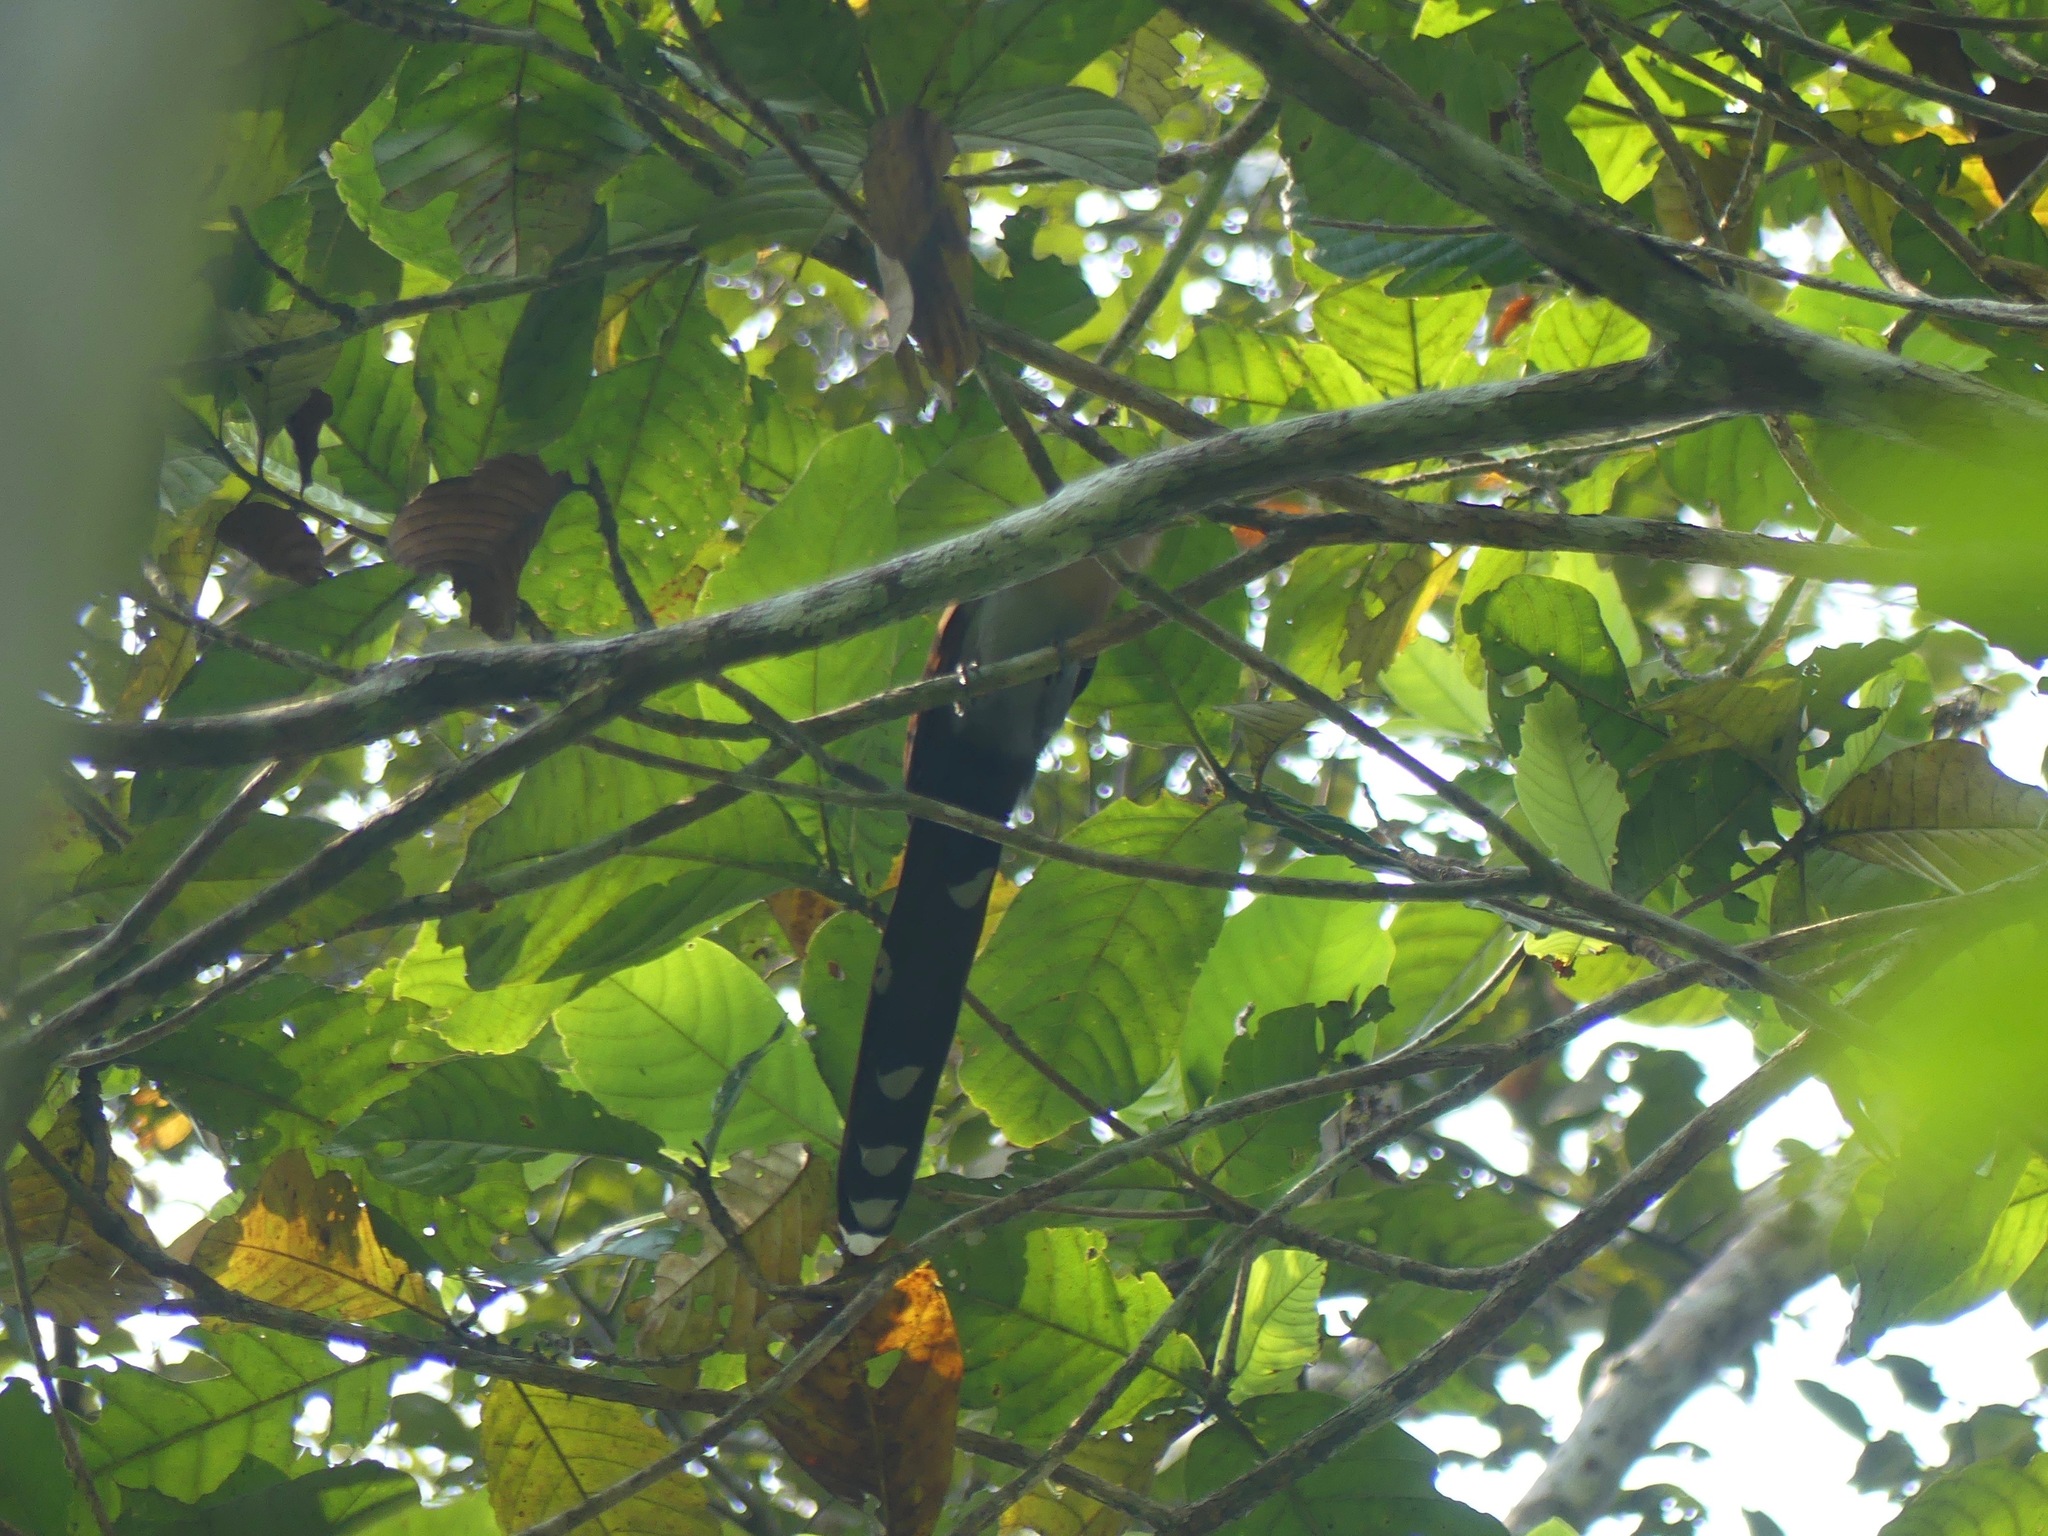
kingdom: Animalia
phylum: Chordata
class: Aves
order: Cuculiformes
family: Cuculidae
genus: Piaya
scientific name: Piaya cayana
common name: Squirrel cuckoo
